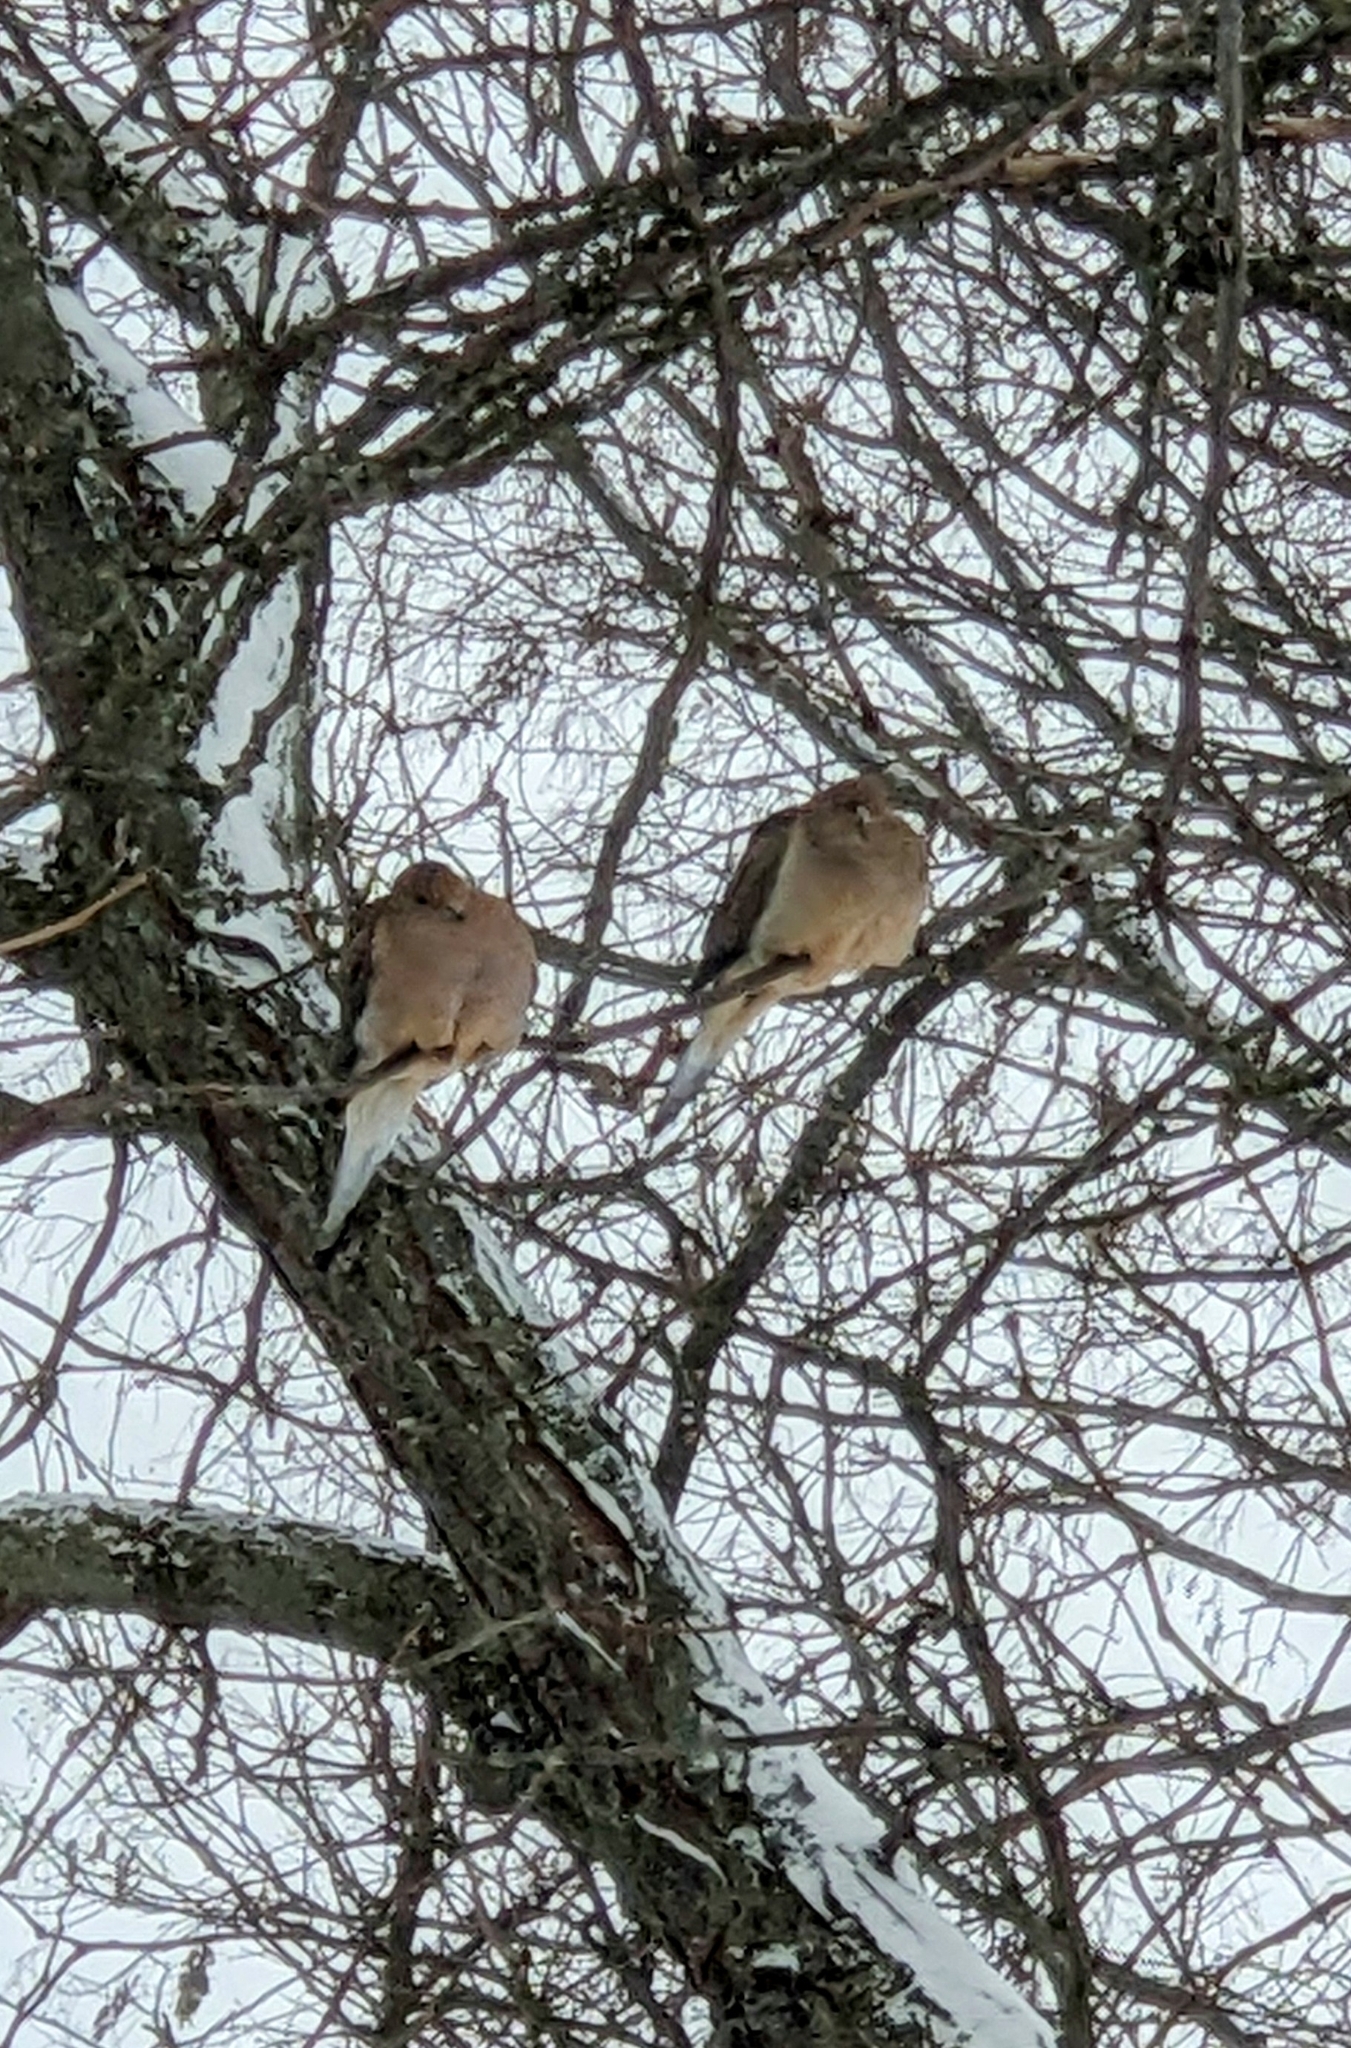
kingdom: Animalia
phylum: Chordata
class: Aves
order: Columbiformes
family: Columbidae
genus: Zenaida
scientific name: Zenaida macroura
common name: Mourning dove
